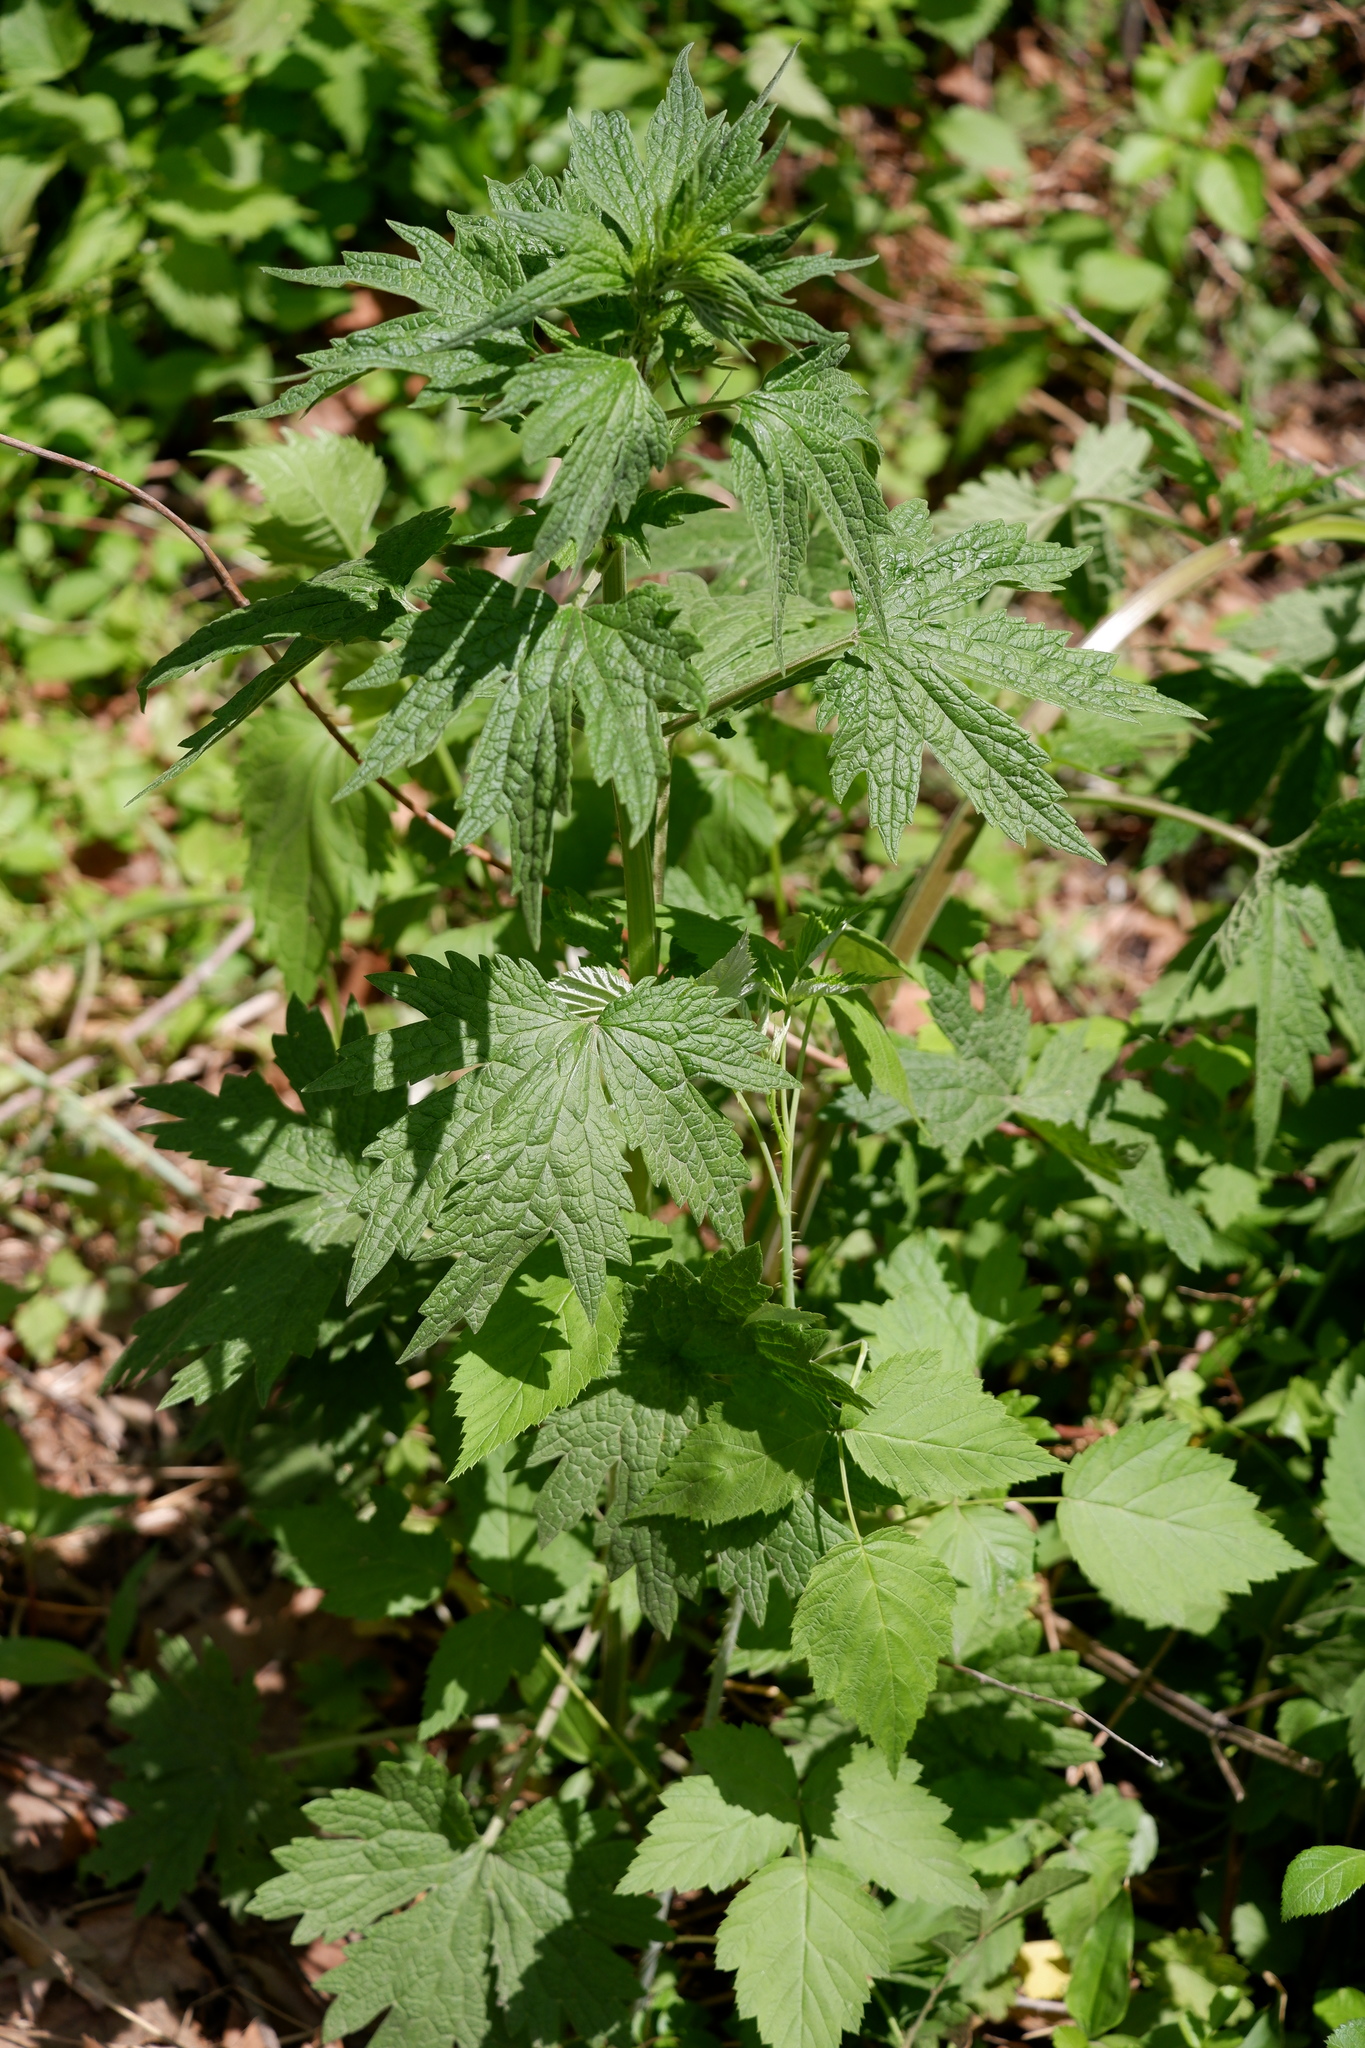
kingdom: Plantae
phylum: Tracheophyta
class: Magnoliopsida
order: Lamiales
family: Lamiaceae
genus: Leonurus
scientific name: Leonurus cardiaca
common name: Motherwort
